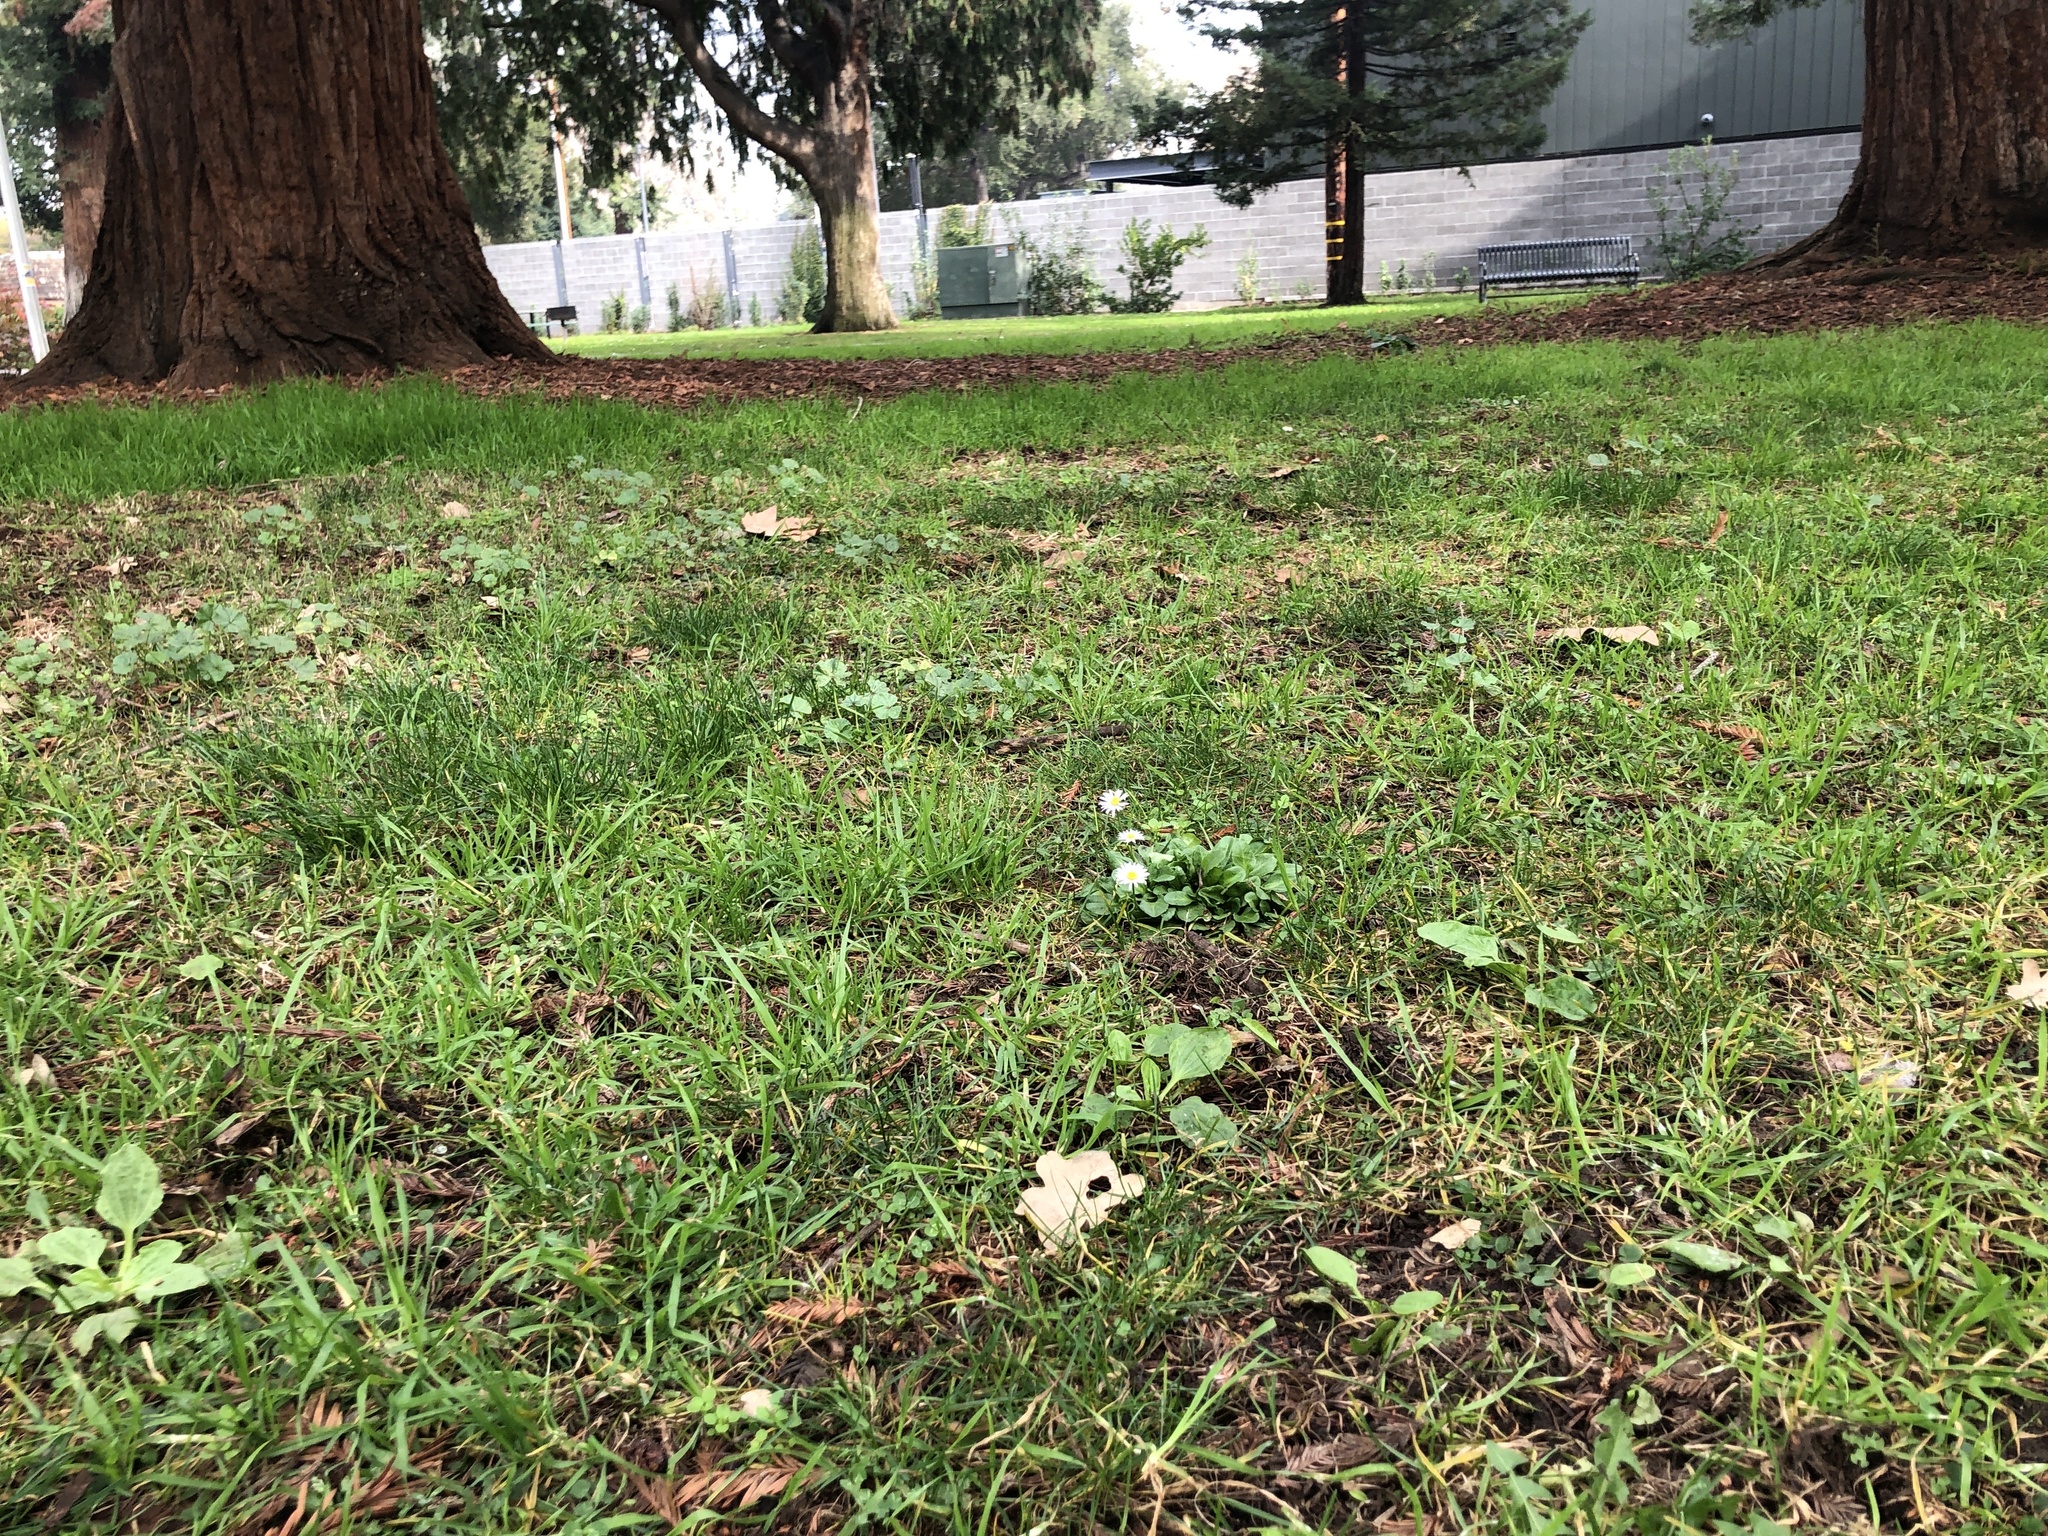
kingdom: Plantae
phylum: Tracheophyta
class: Magnoliopsida
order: Asterales
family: Asteraceae
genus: Bellis
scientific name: Bellis perennis
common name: Lawndaisy
